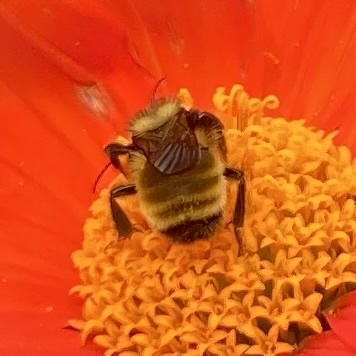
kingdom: Animalia
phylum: Arthropoda
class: Insecta
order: Hymenoptera
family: Apidae
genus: Bombus
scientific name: Bombus borealis
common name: Northern amber bumble bee
